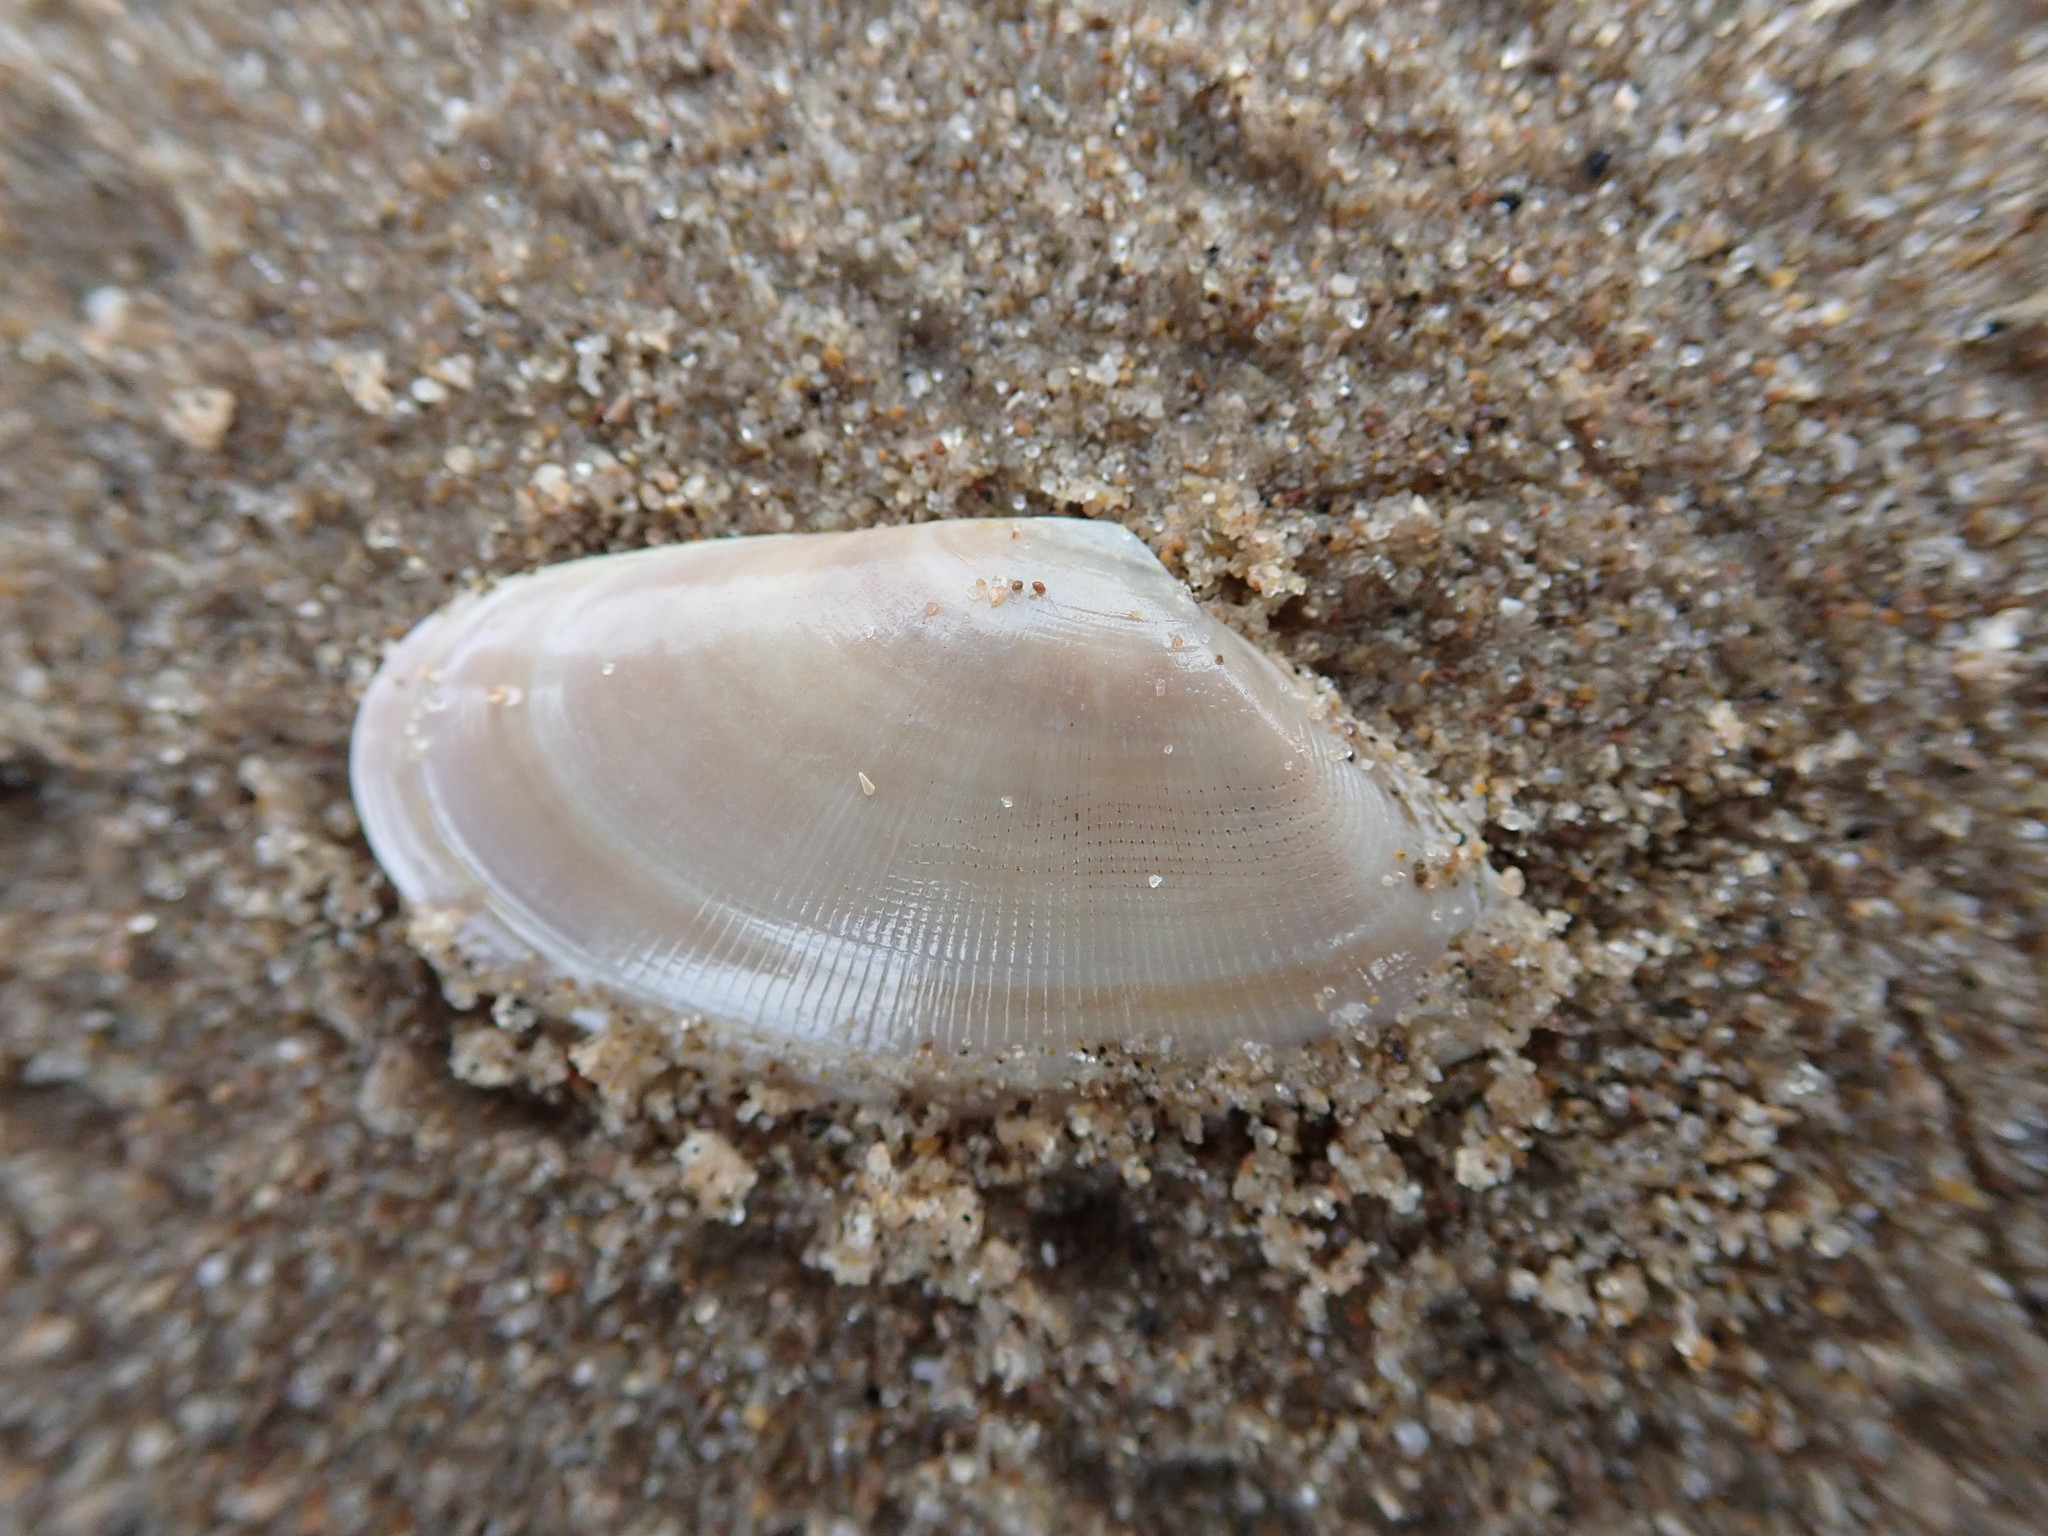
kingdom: Animalia
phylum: Mollusca
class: Bivalvia
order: Cardiida
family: Donacidae
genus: Donax
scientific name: Donax vittatus
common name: Banded wedge-shell
